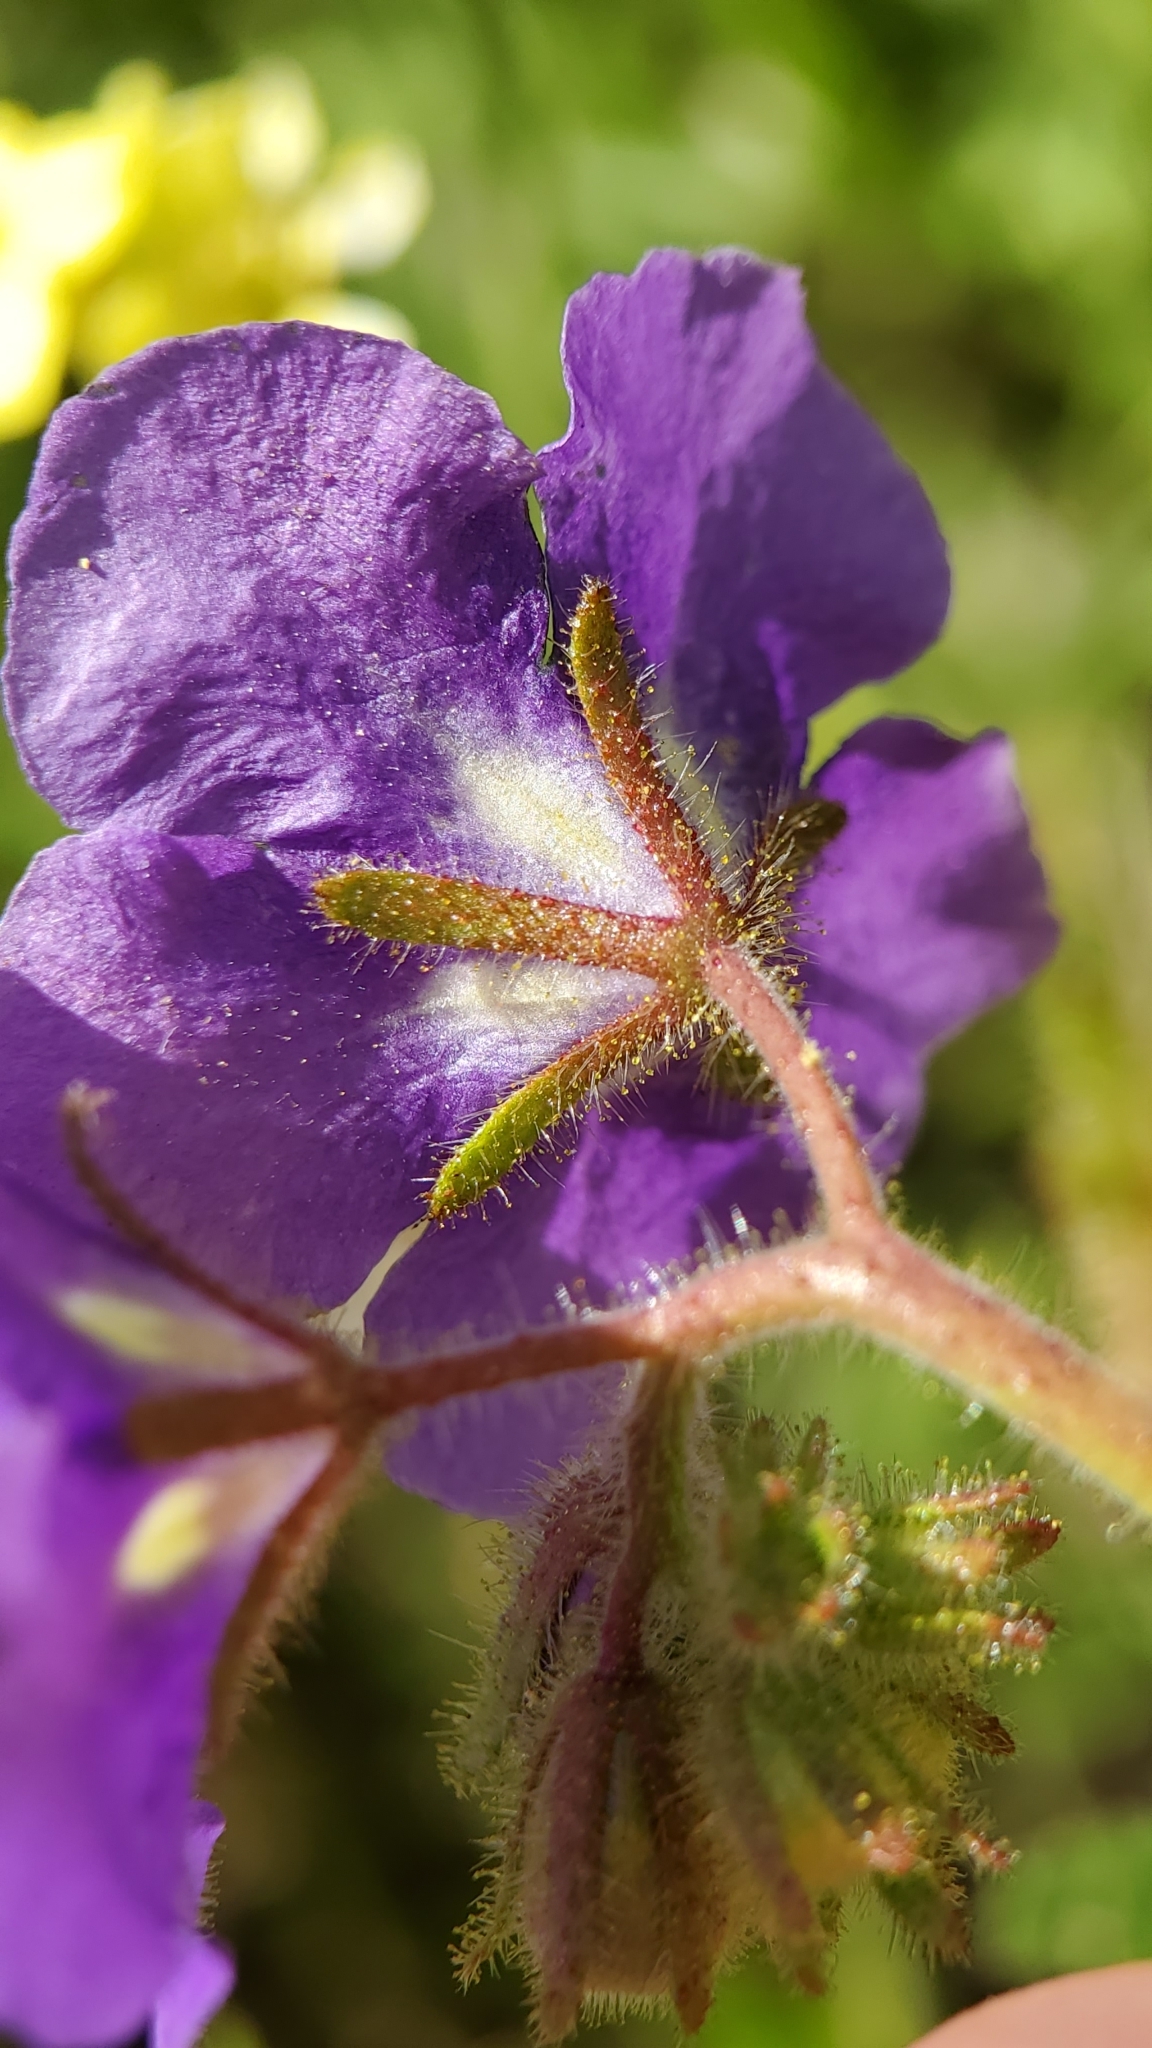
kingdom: Plantae
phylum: Tracheophyta
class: Magnoliopsida
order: Boraginales
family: Hydrophyllaceae
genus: Phacelia
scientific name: Phacelia parryi
